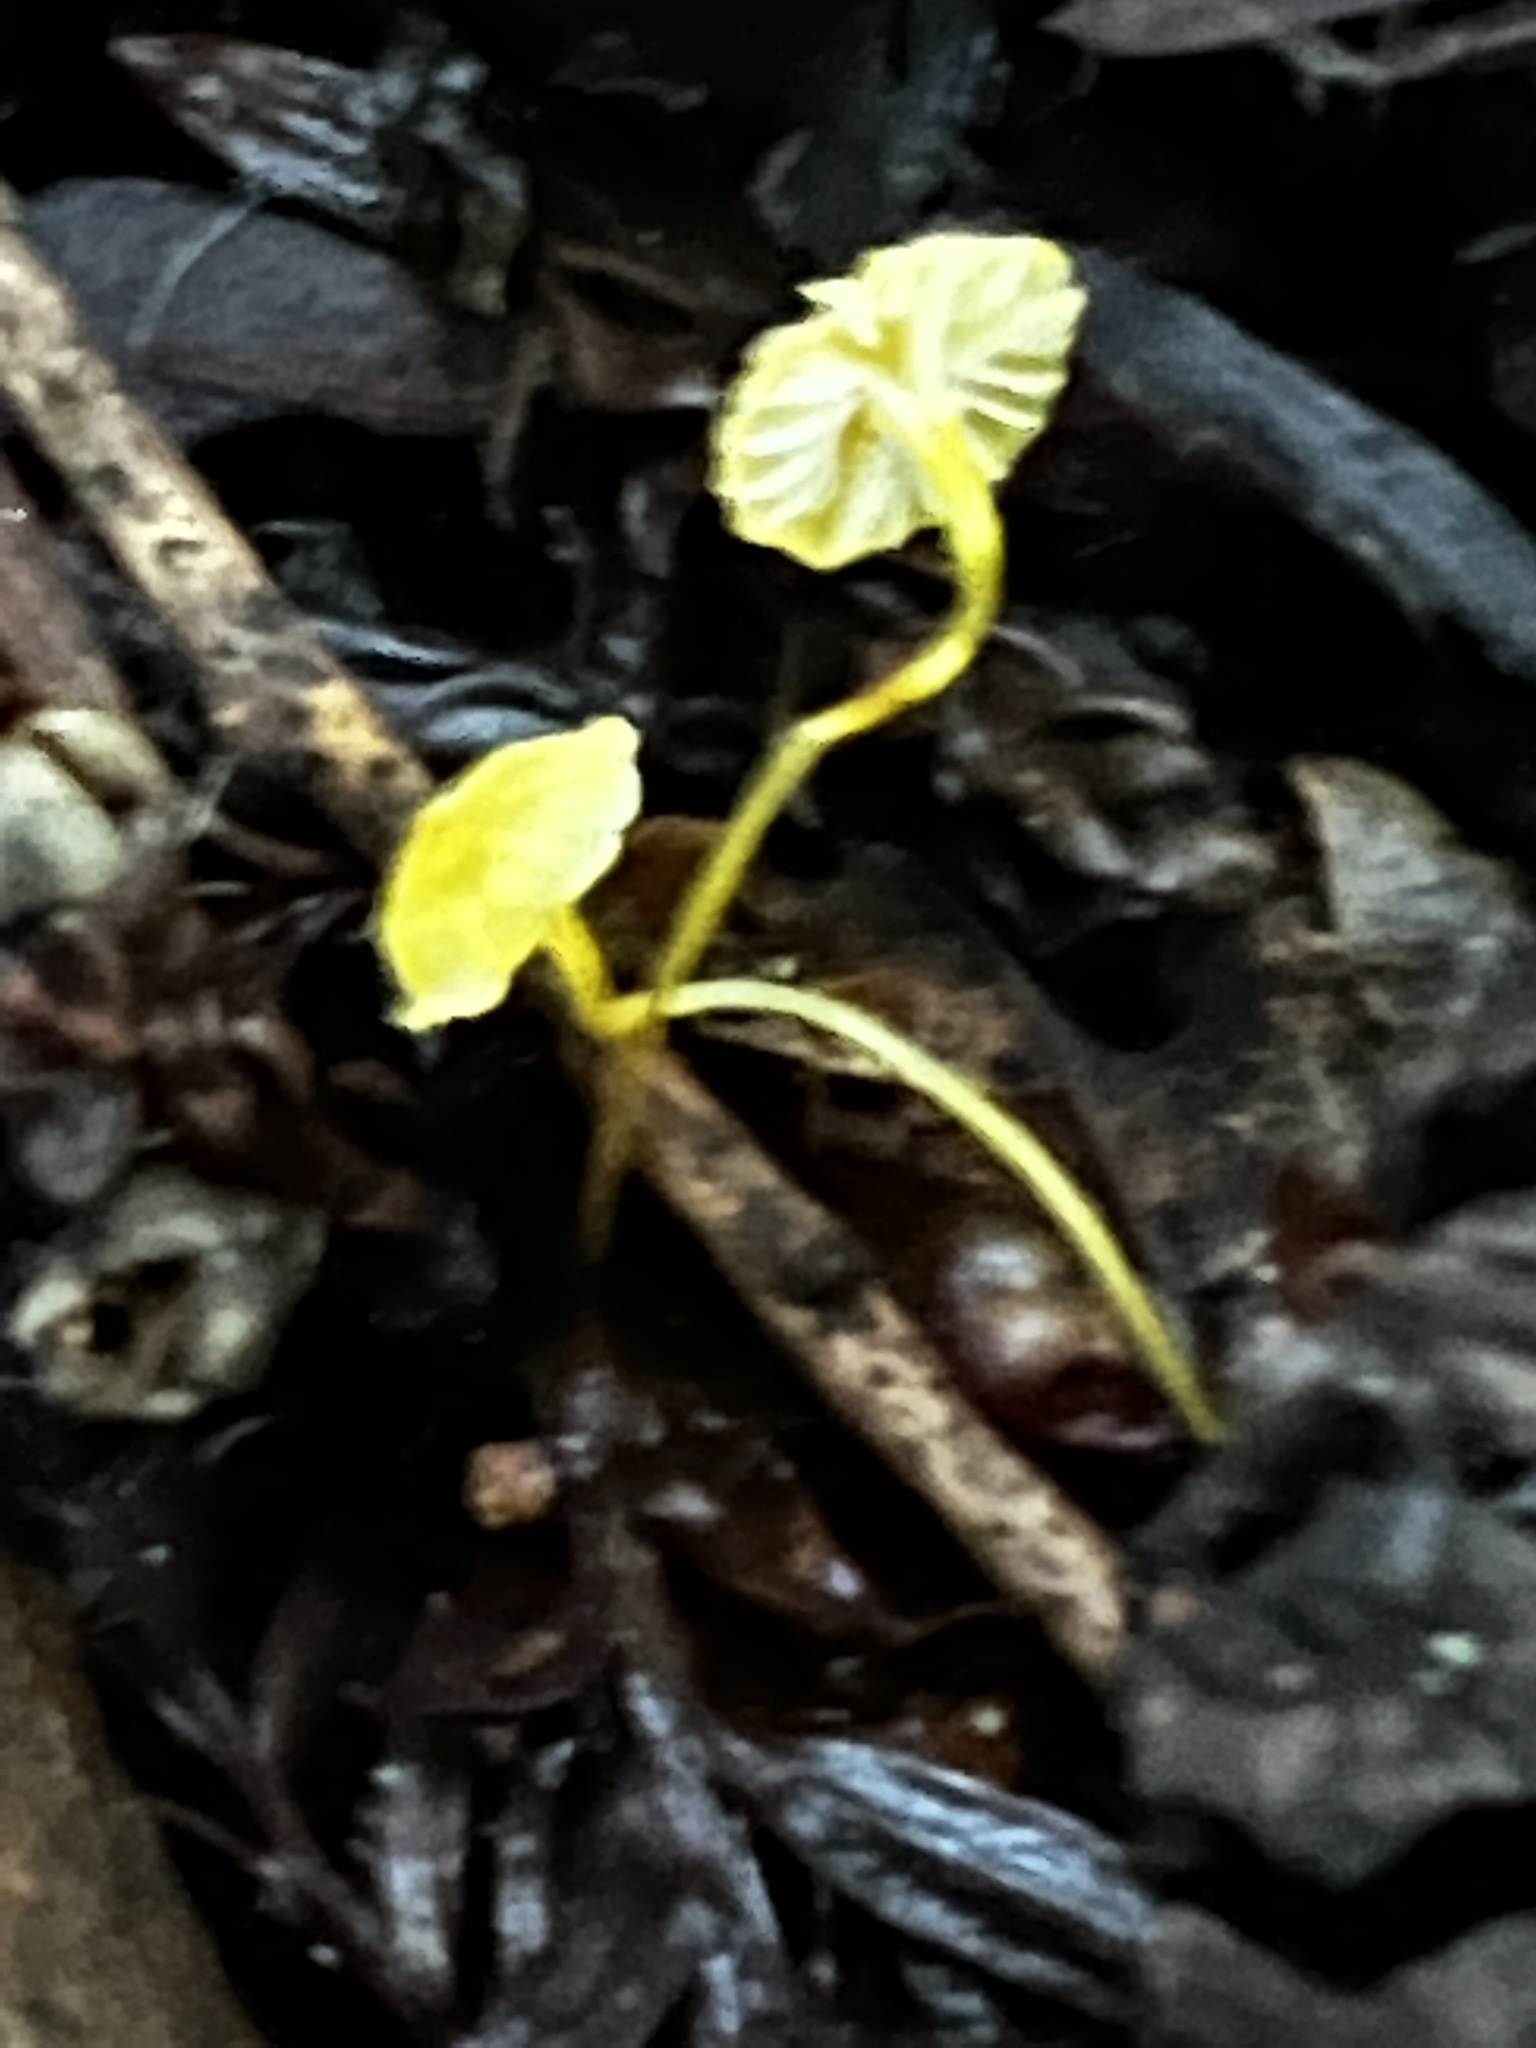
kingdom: Fungi
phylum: Basidiomycota
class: Agaricomycetes
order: Agaricales
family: Mycenaceae
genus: Mycena
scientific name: Mycena oregonensis
